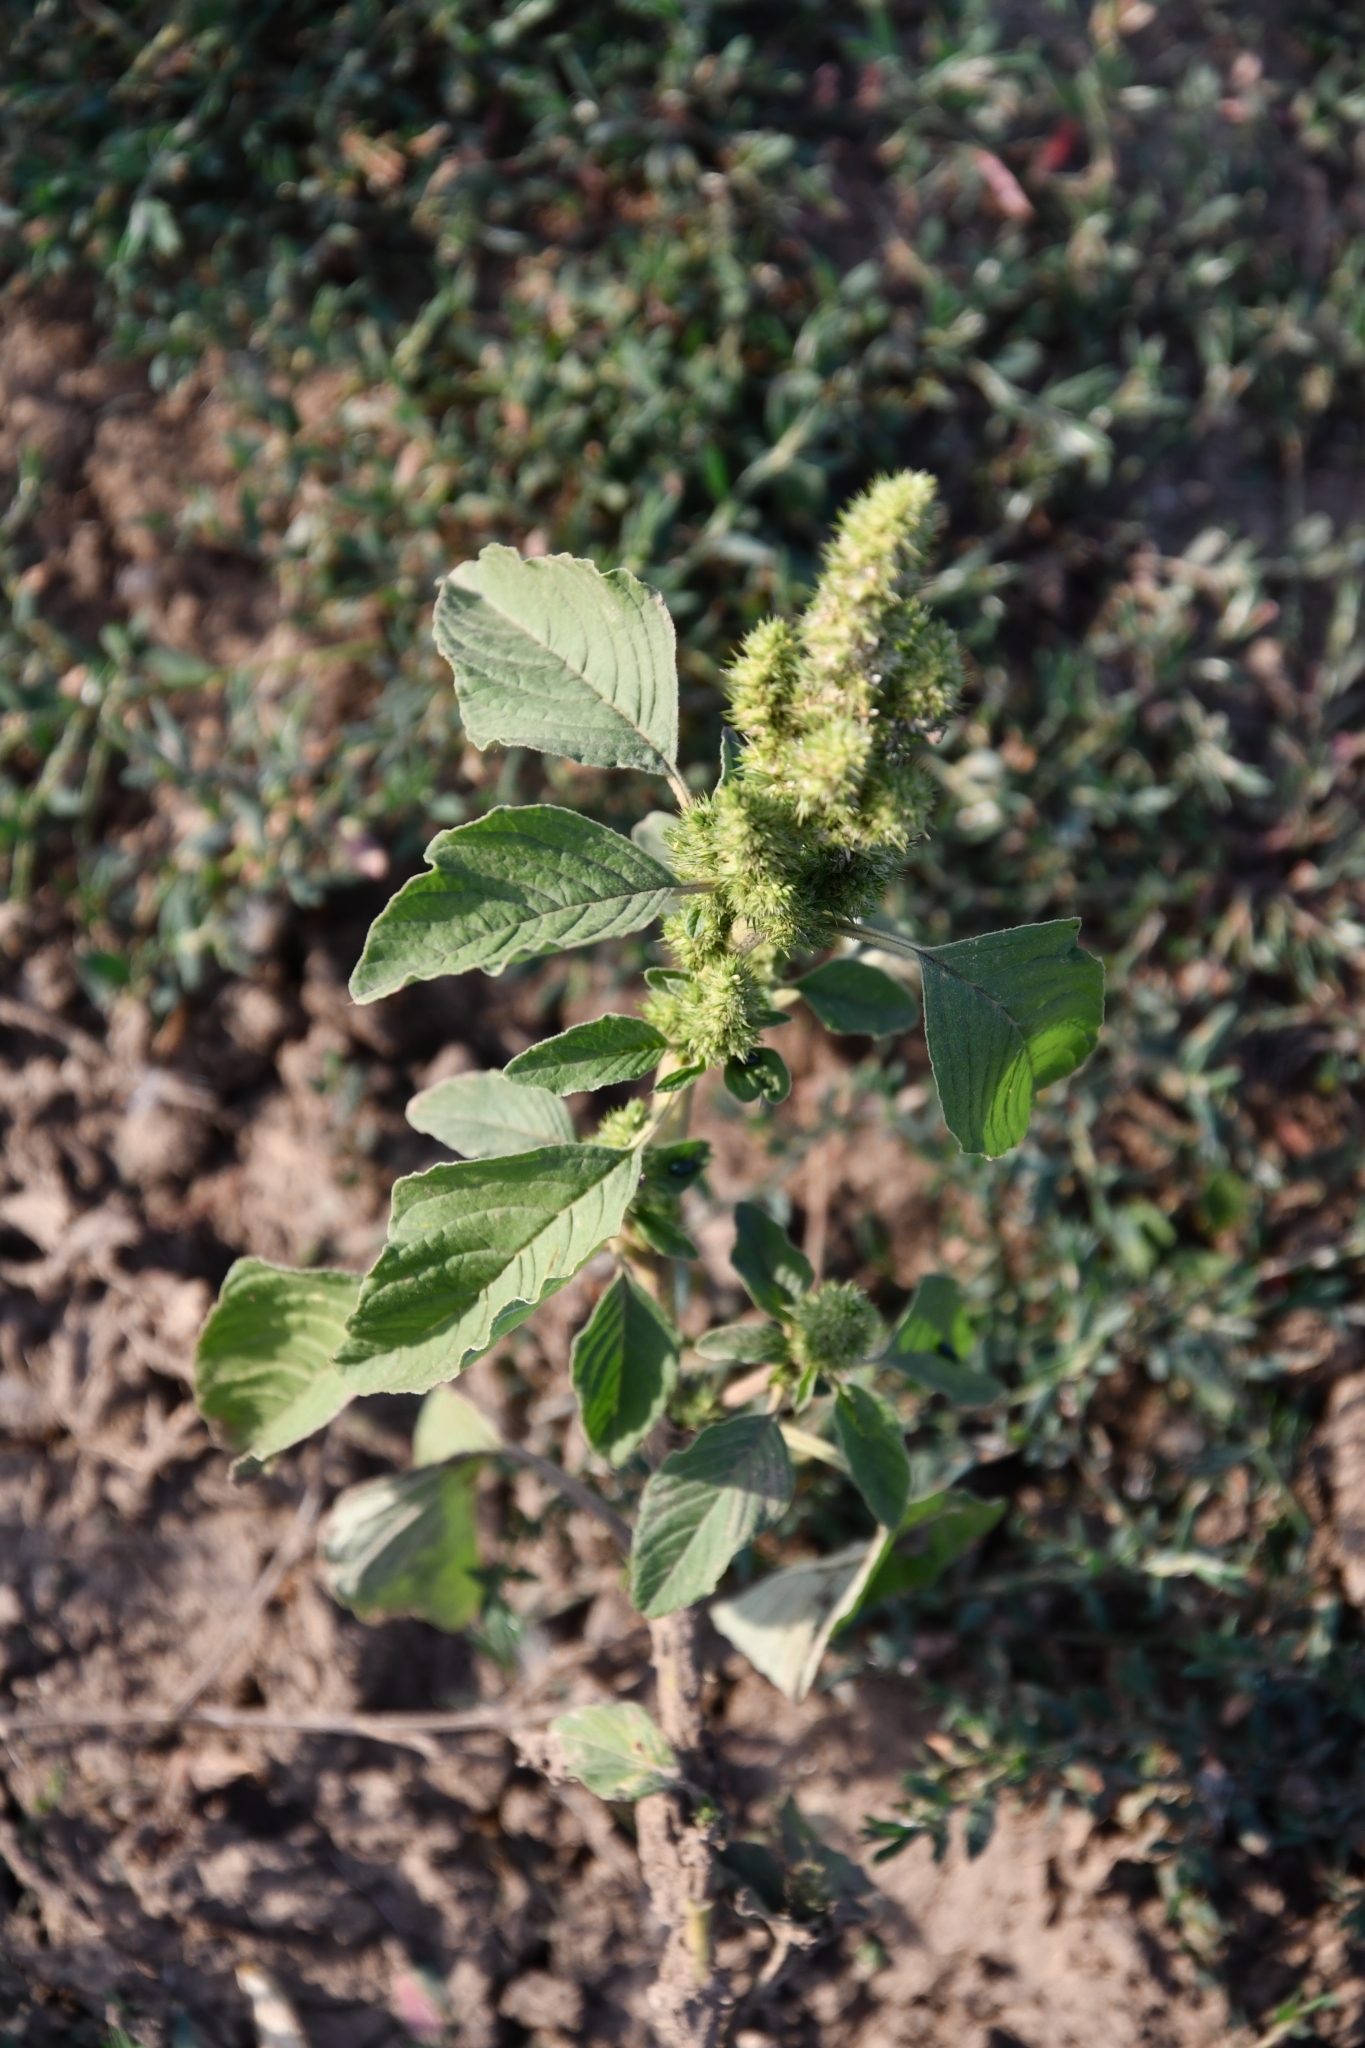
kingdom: Plantae
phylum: Tracheophyta
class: Magnoliopsida
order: Caryophyllales
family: Amaranthaceae
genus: Amaranthus
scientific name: Amaranthus retroflexus
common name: Redroot amaranth
